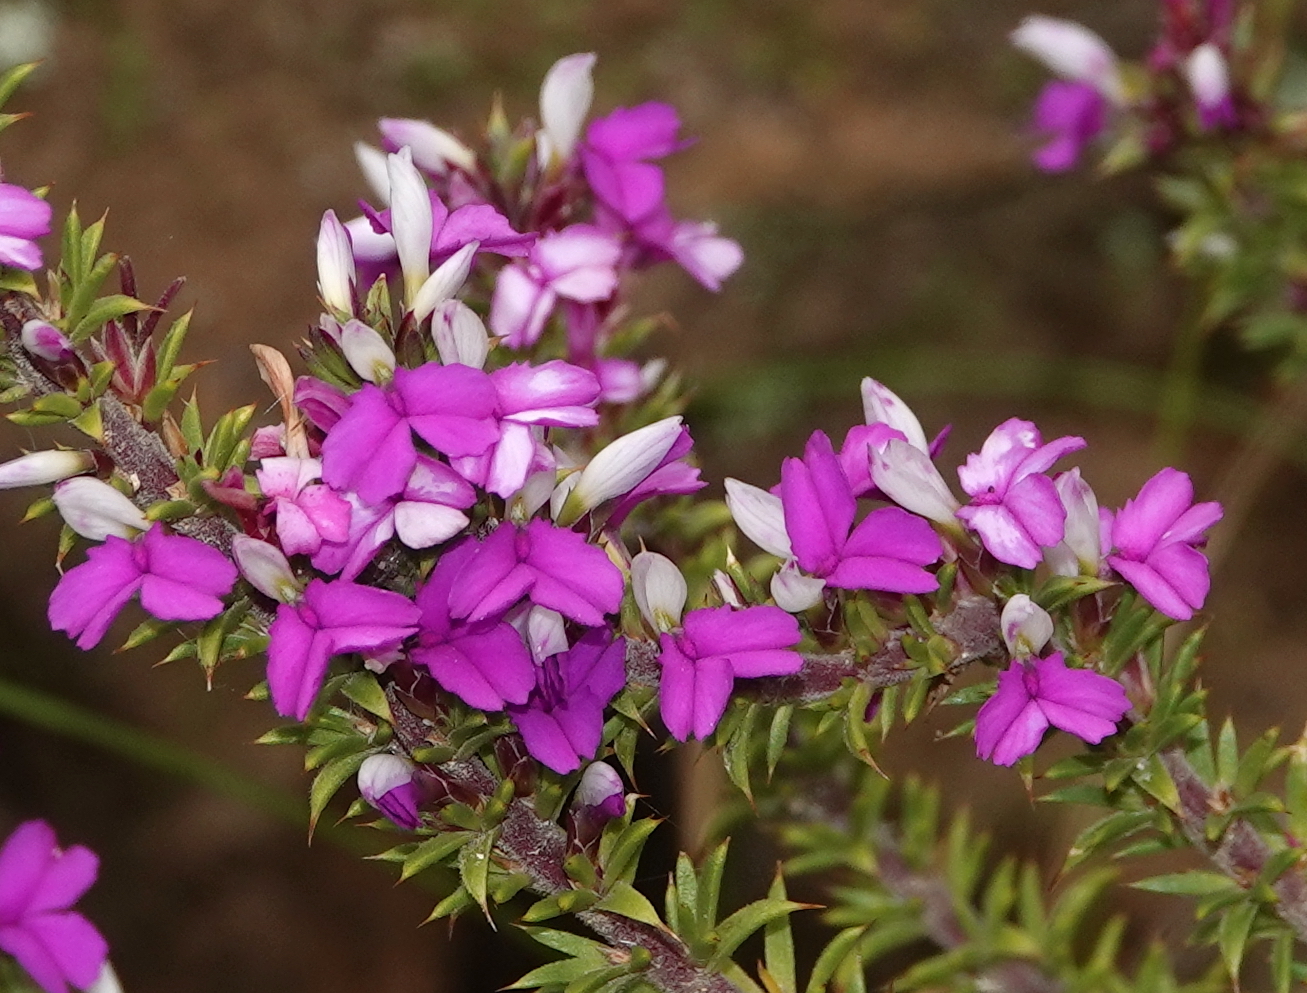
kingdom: Plantae
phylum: Tracheophyta
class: Magnoliopsida
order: Fabales
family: Polygalaceae
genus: Muraltia
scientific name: Muraltia heisteria
